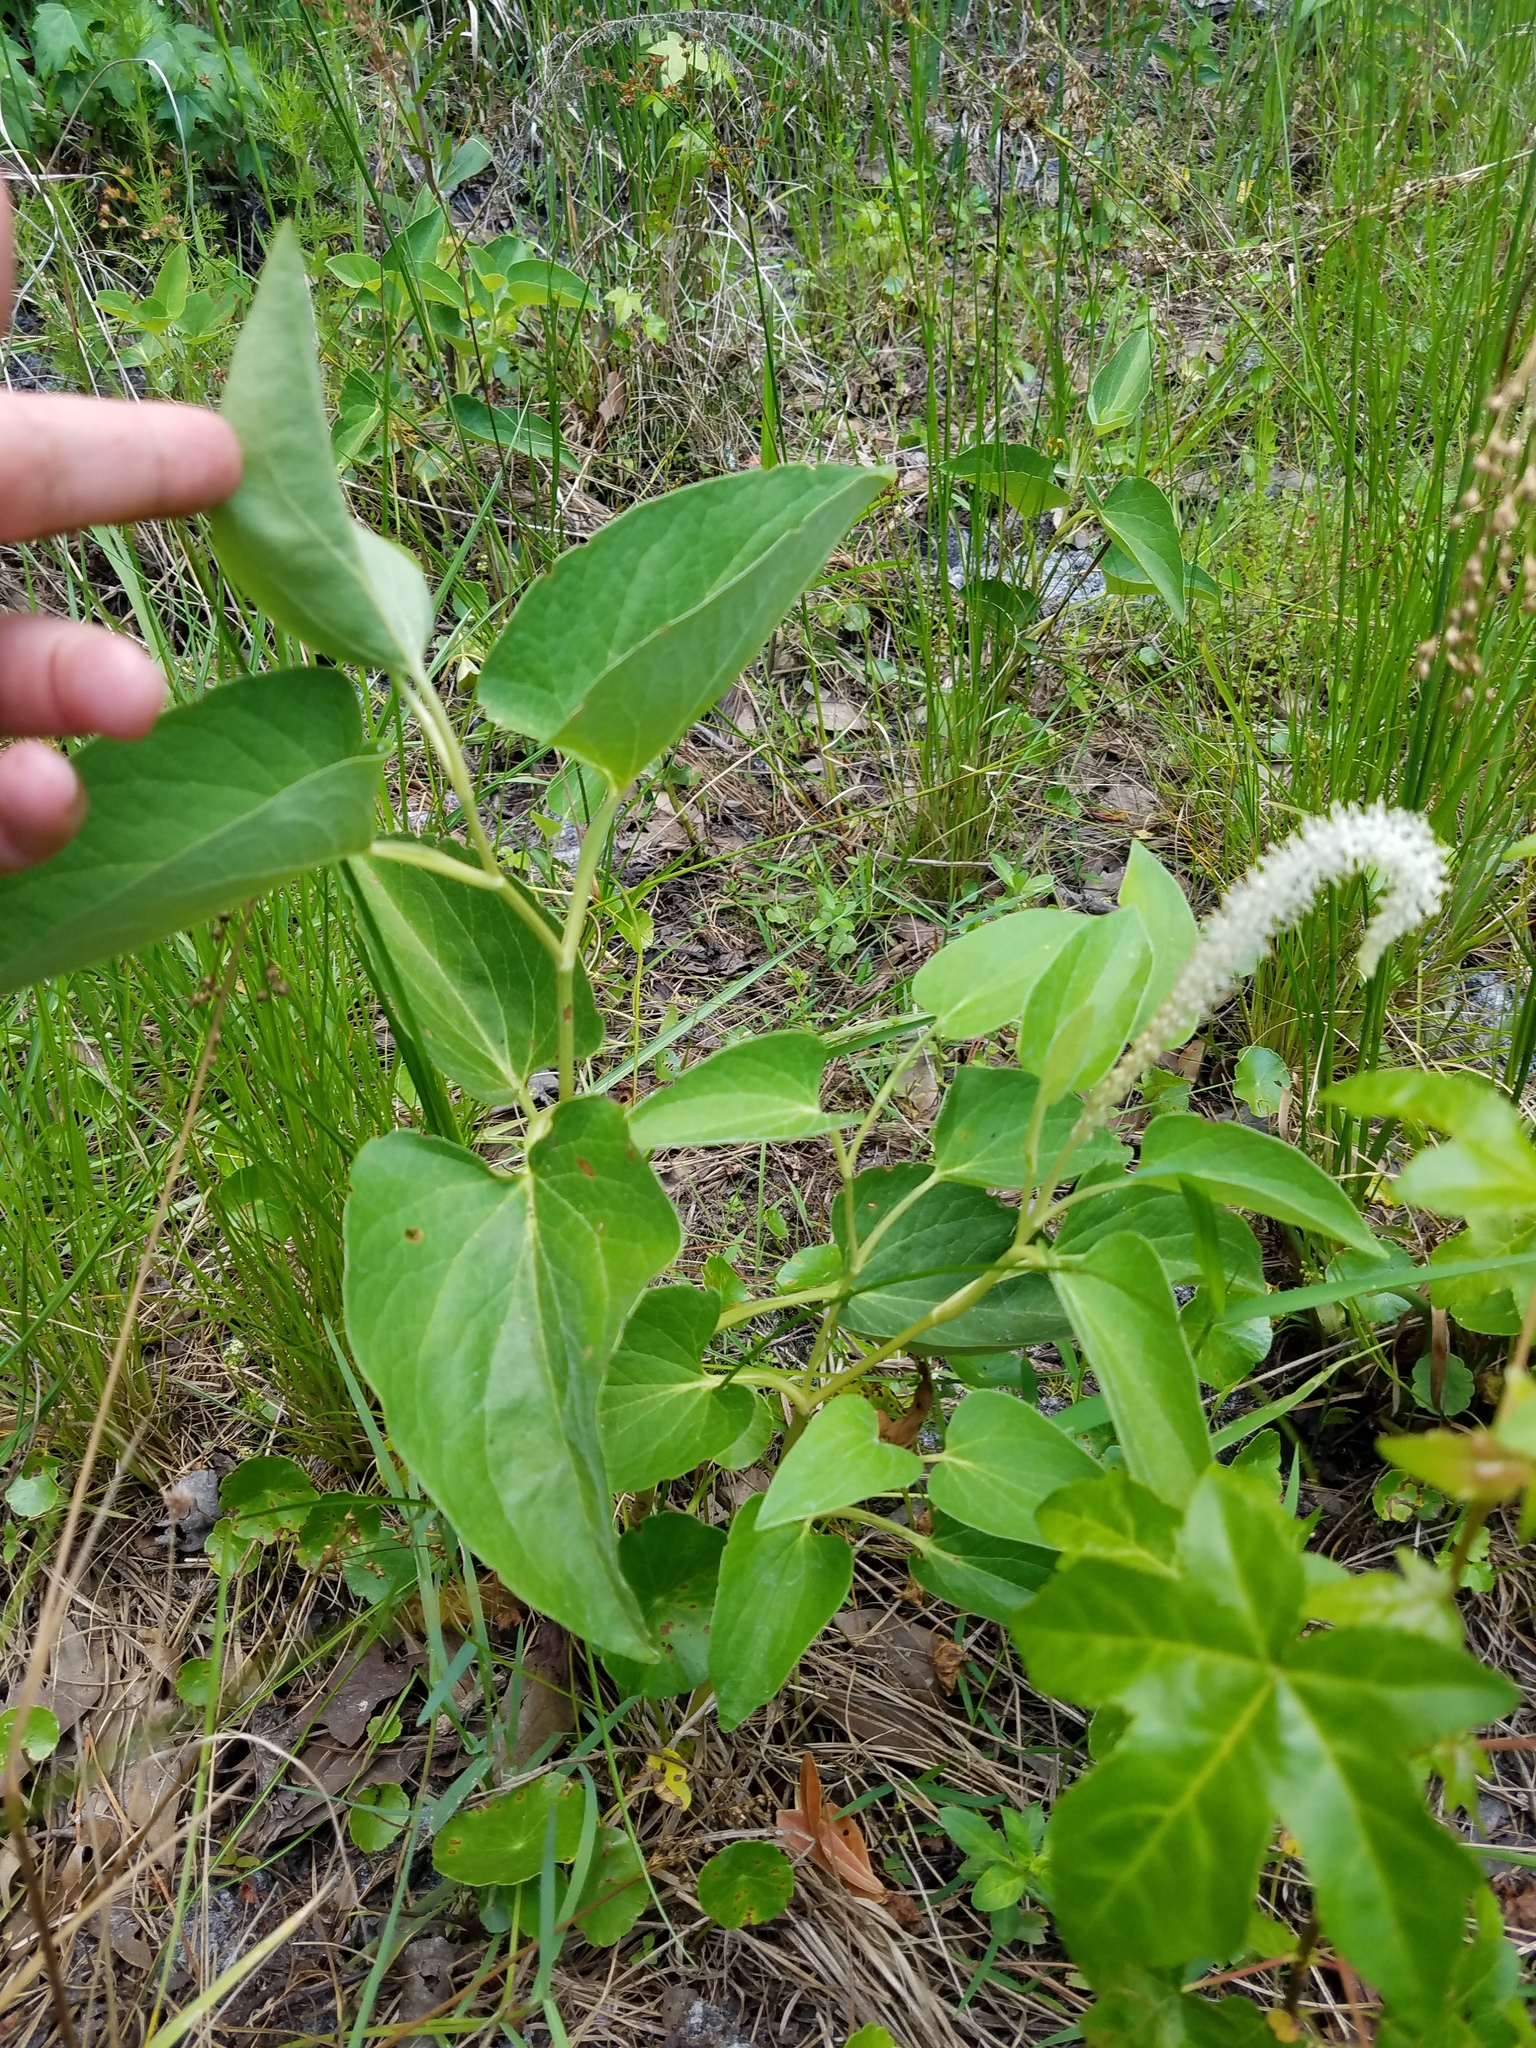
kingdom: Plantae
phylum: Tracheophyta
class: Magnoliopsida
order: Piperales
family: Saururaceae
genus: Saururus
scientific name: Saururus cernuus
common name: Lizard's-tail
